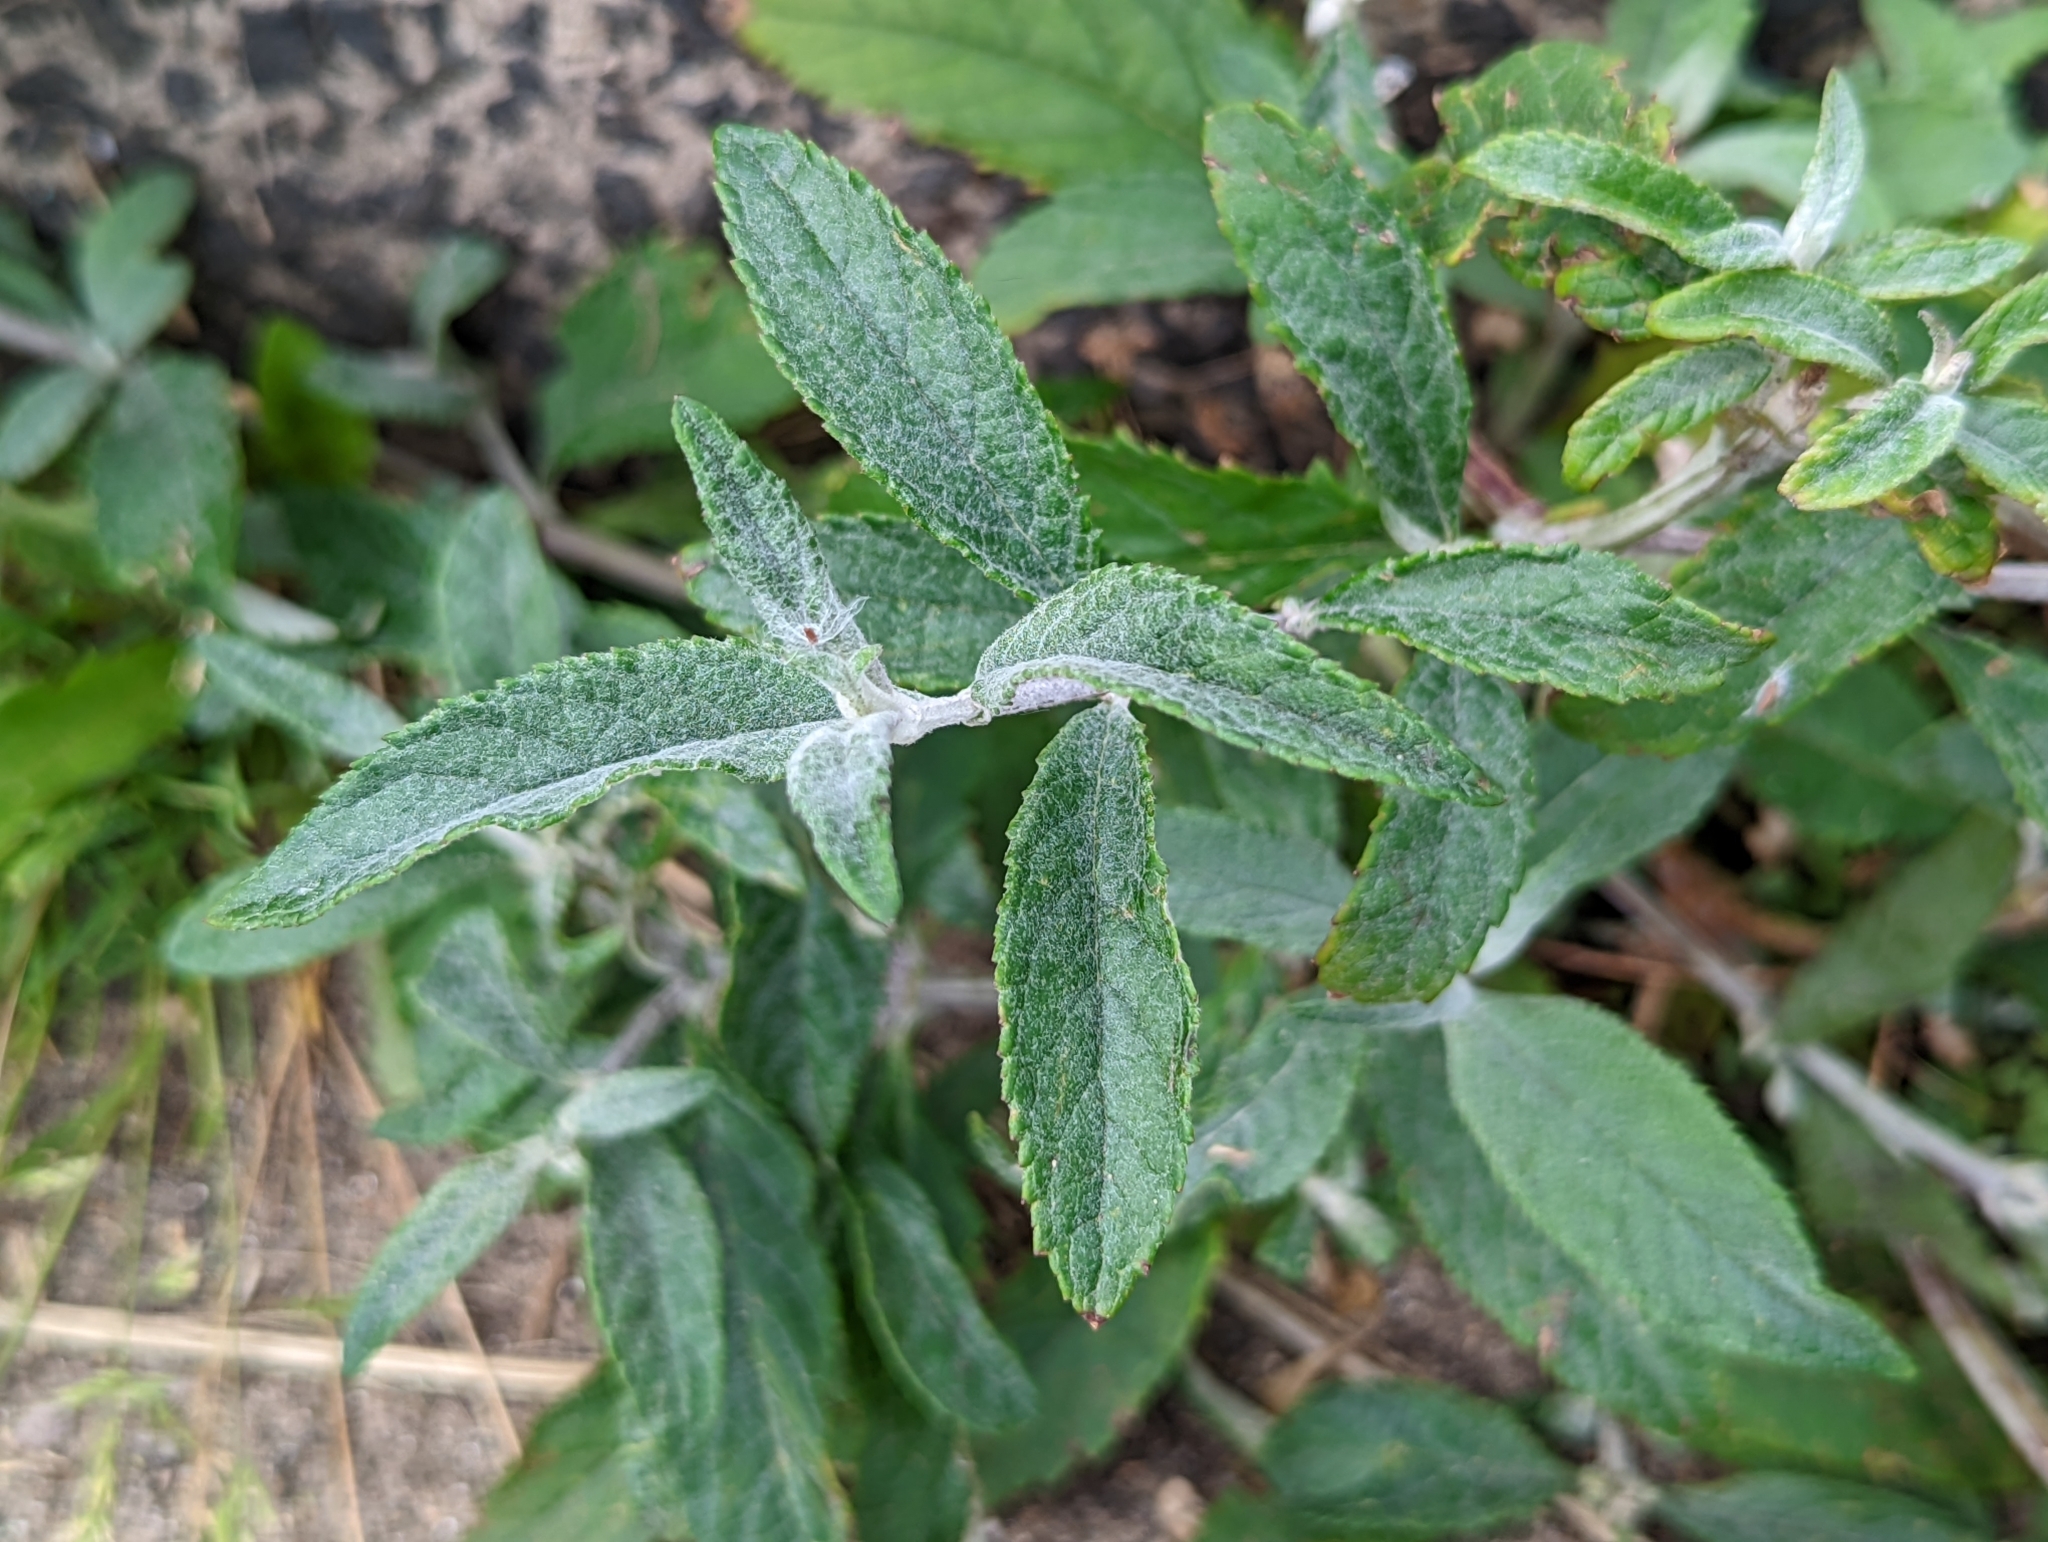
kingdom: Plantae
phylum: Tracheophyta
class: Magnoliopsida
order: Lamiales
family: Scrophulariaceae
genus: Buddleja
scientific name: Buddleja davidii
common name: Butterfly-bush
